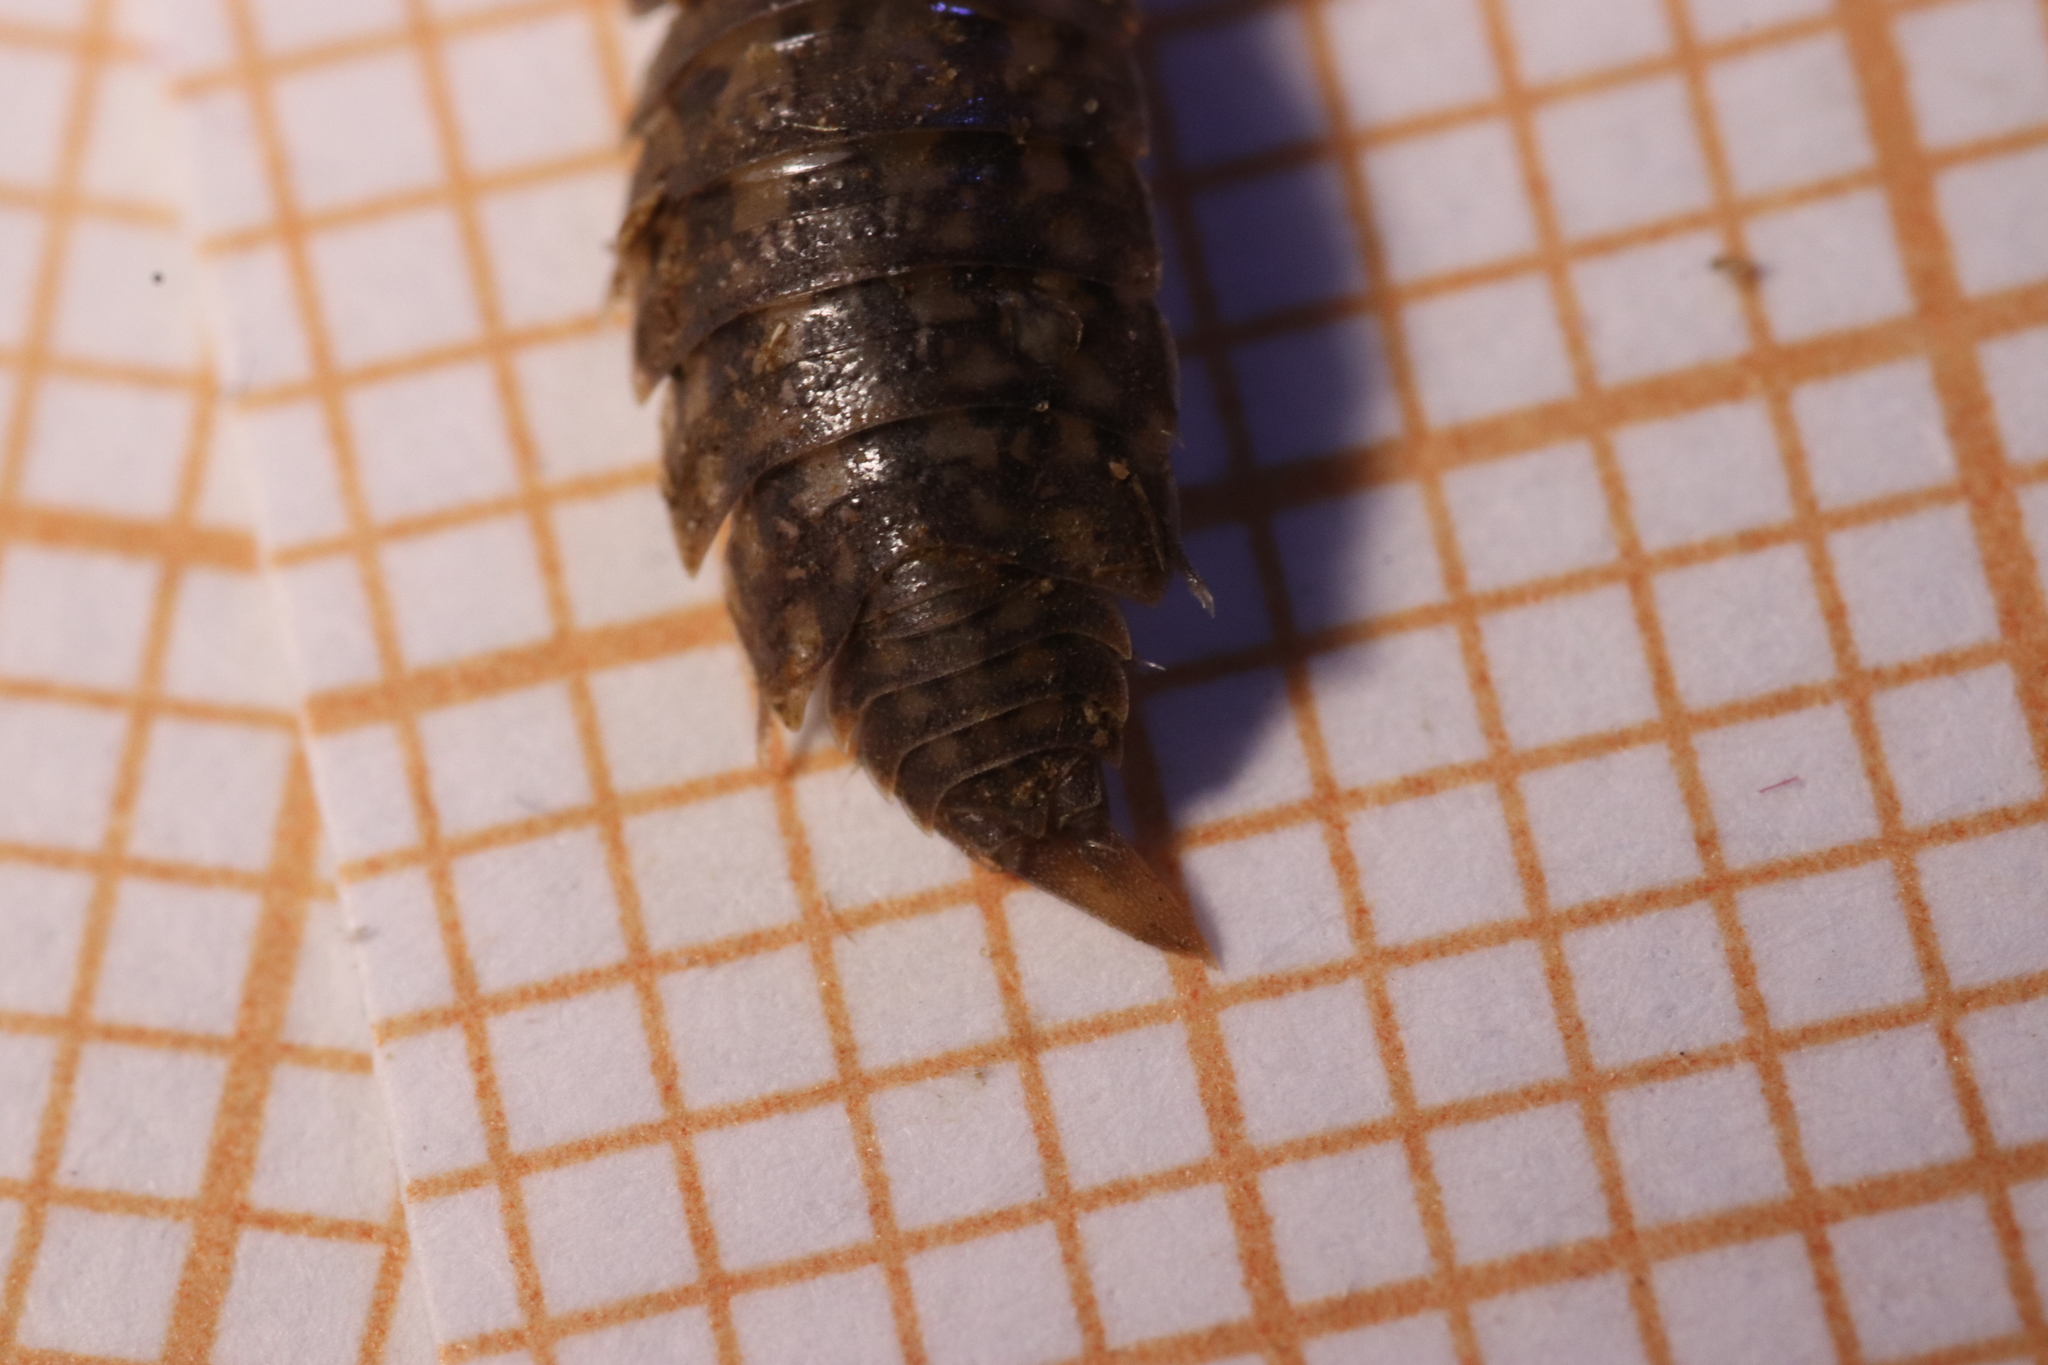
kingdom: Animalia
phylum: Arthropoda
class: Malacostraca
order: Isopoda
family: Agnaridae
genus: Orthometopon
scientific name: Orthometopon planum
